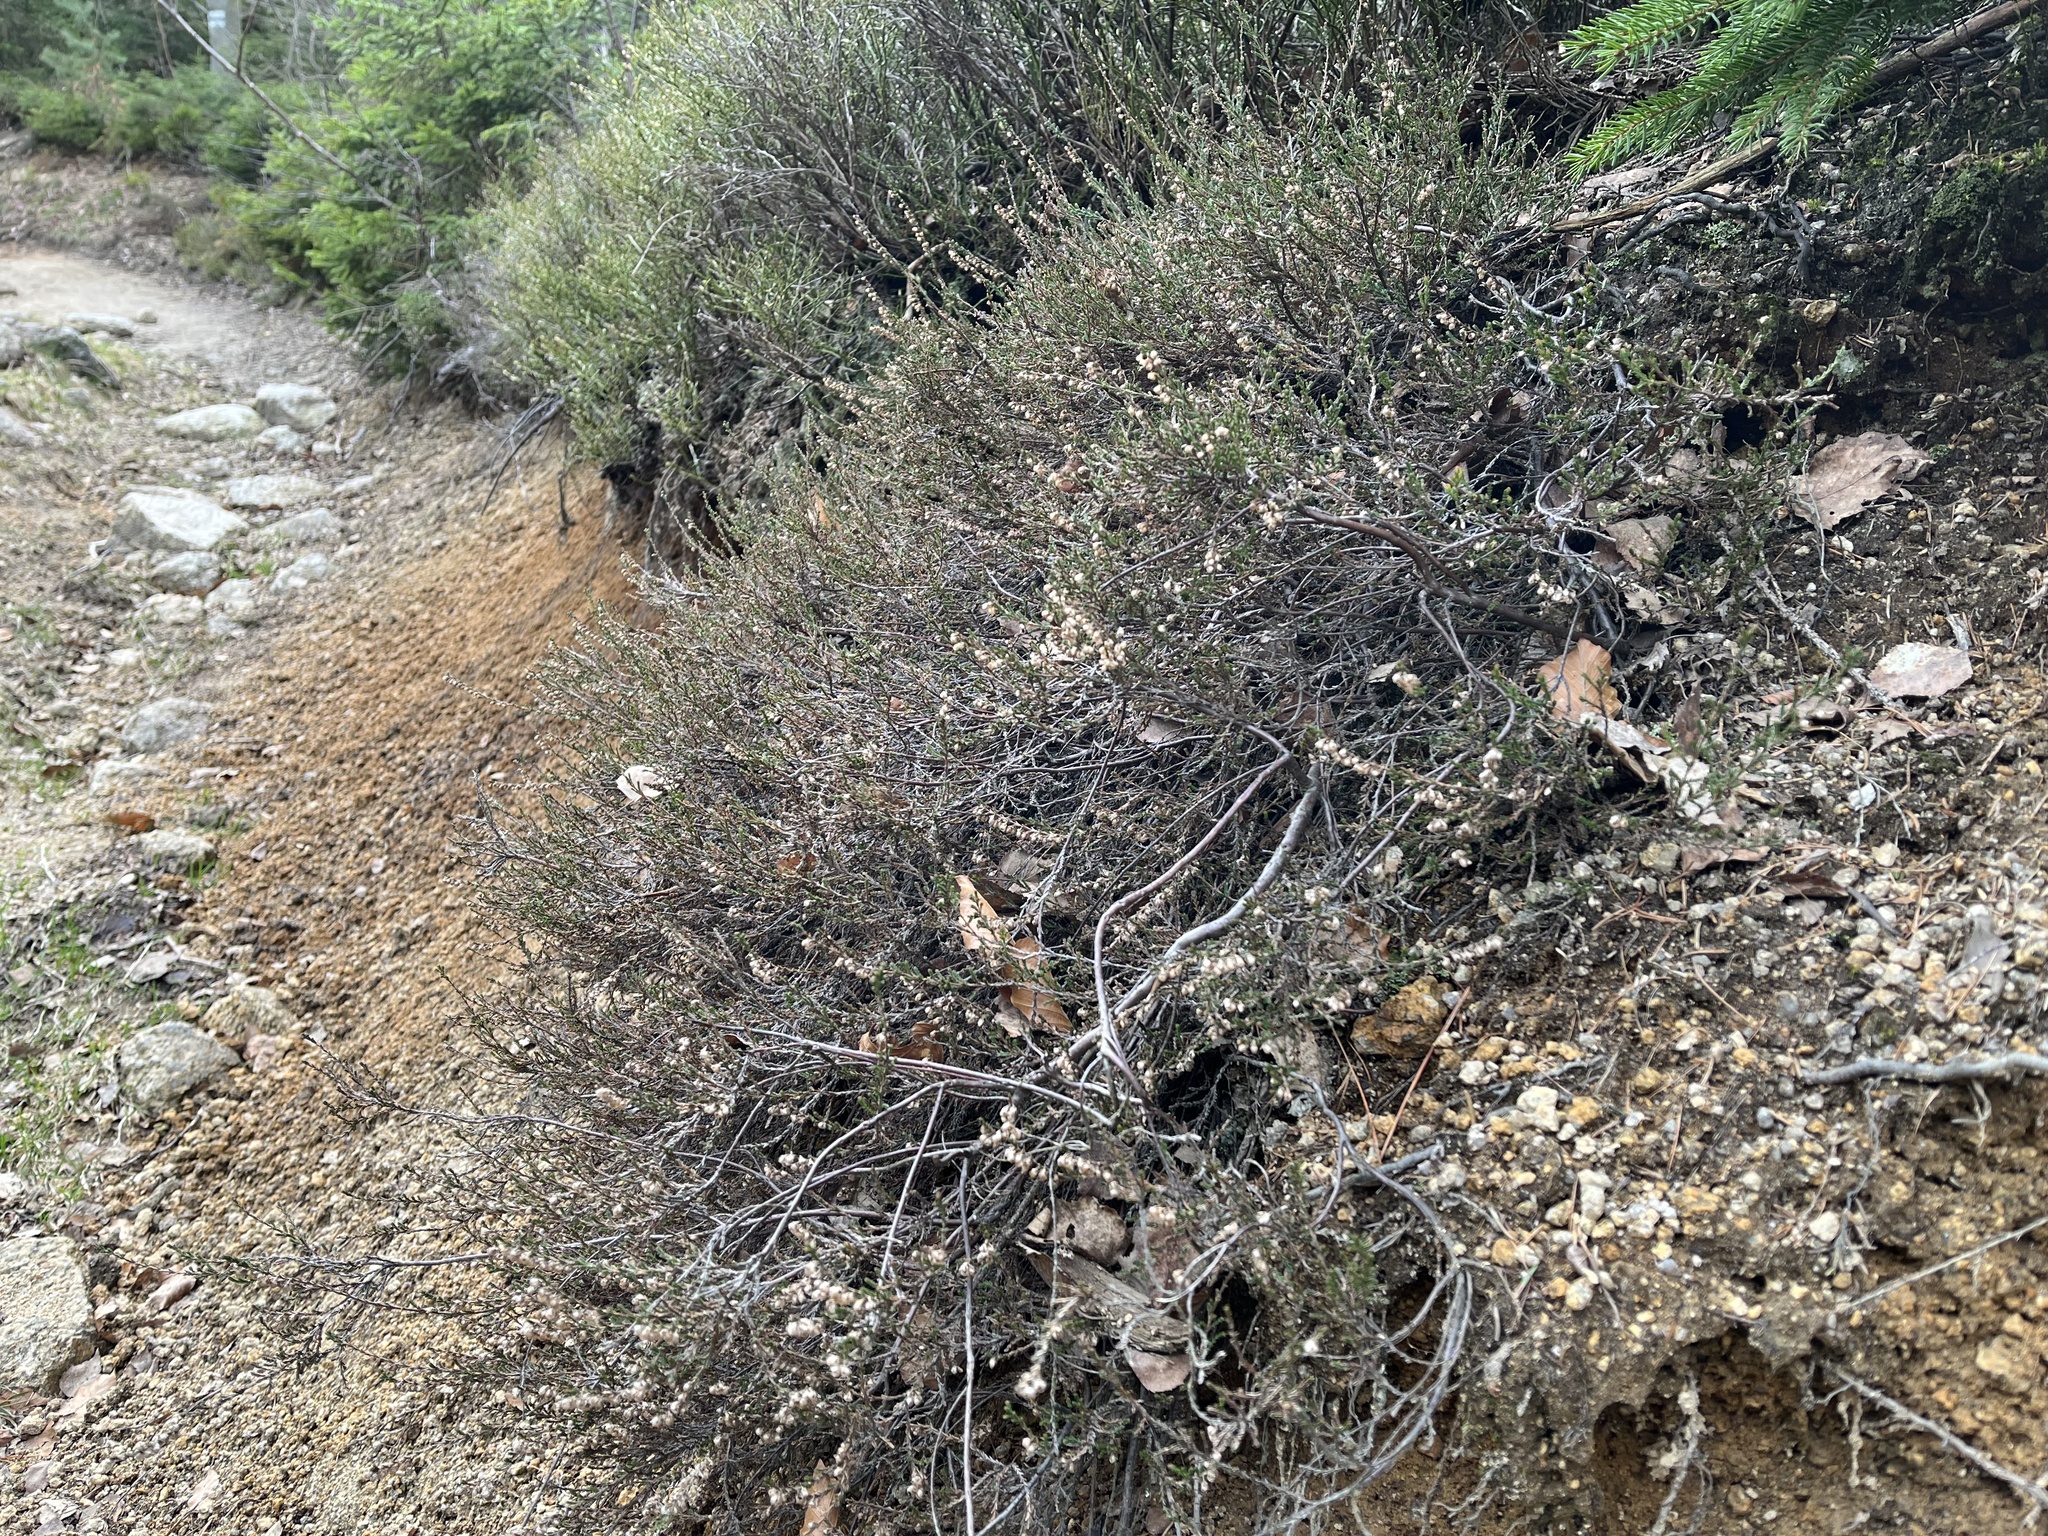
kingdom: Plantae
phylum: Tracheophyta
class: Magnoliopsida
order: Ericales
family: Ericaceae
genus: Calluna
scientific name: Calluna vulgaris
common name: Heather
